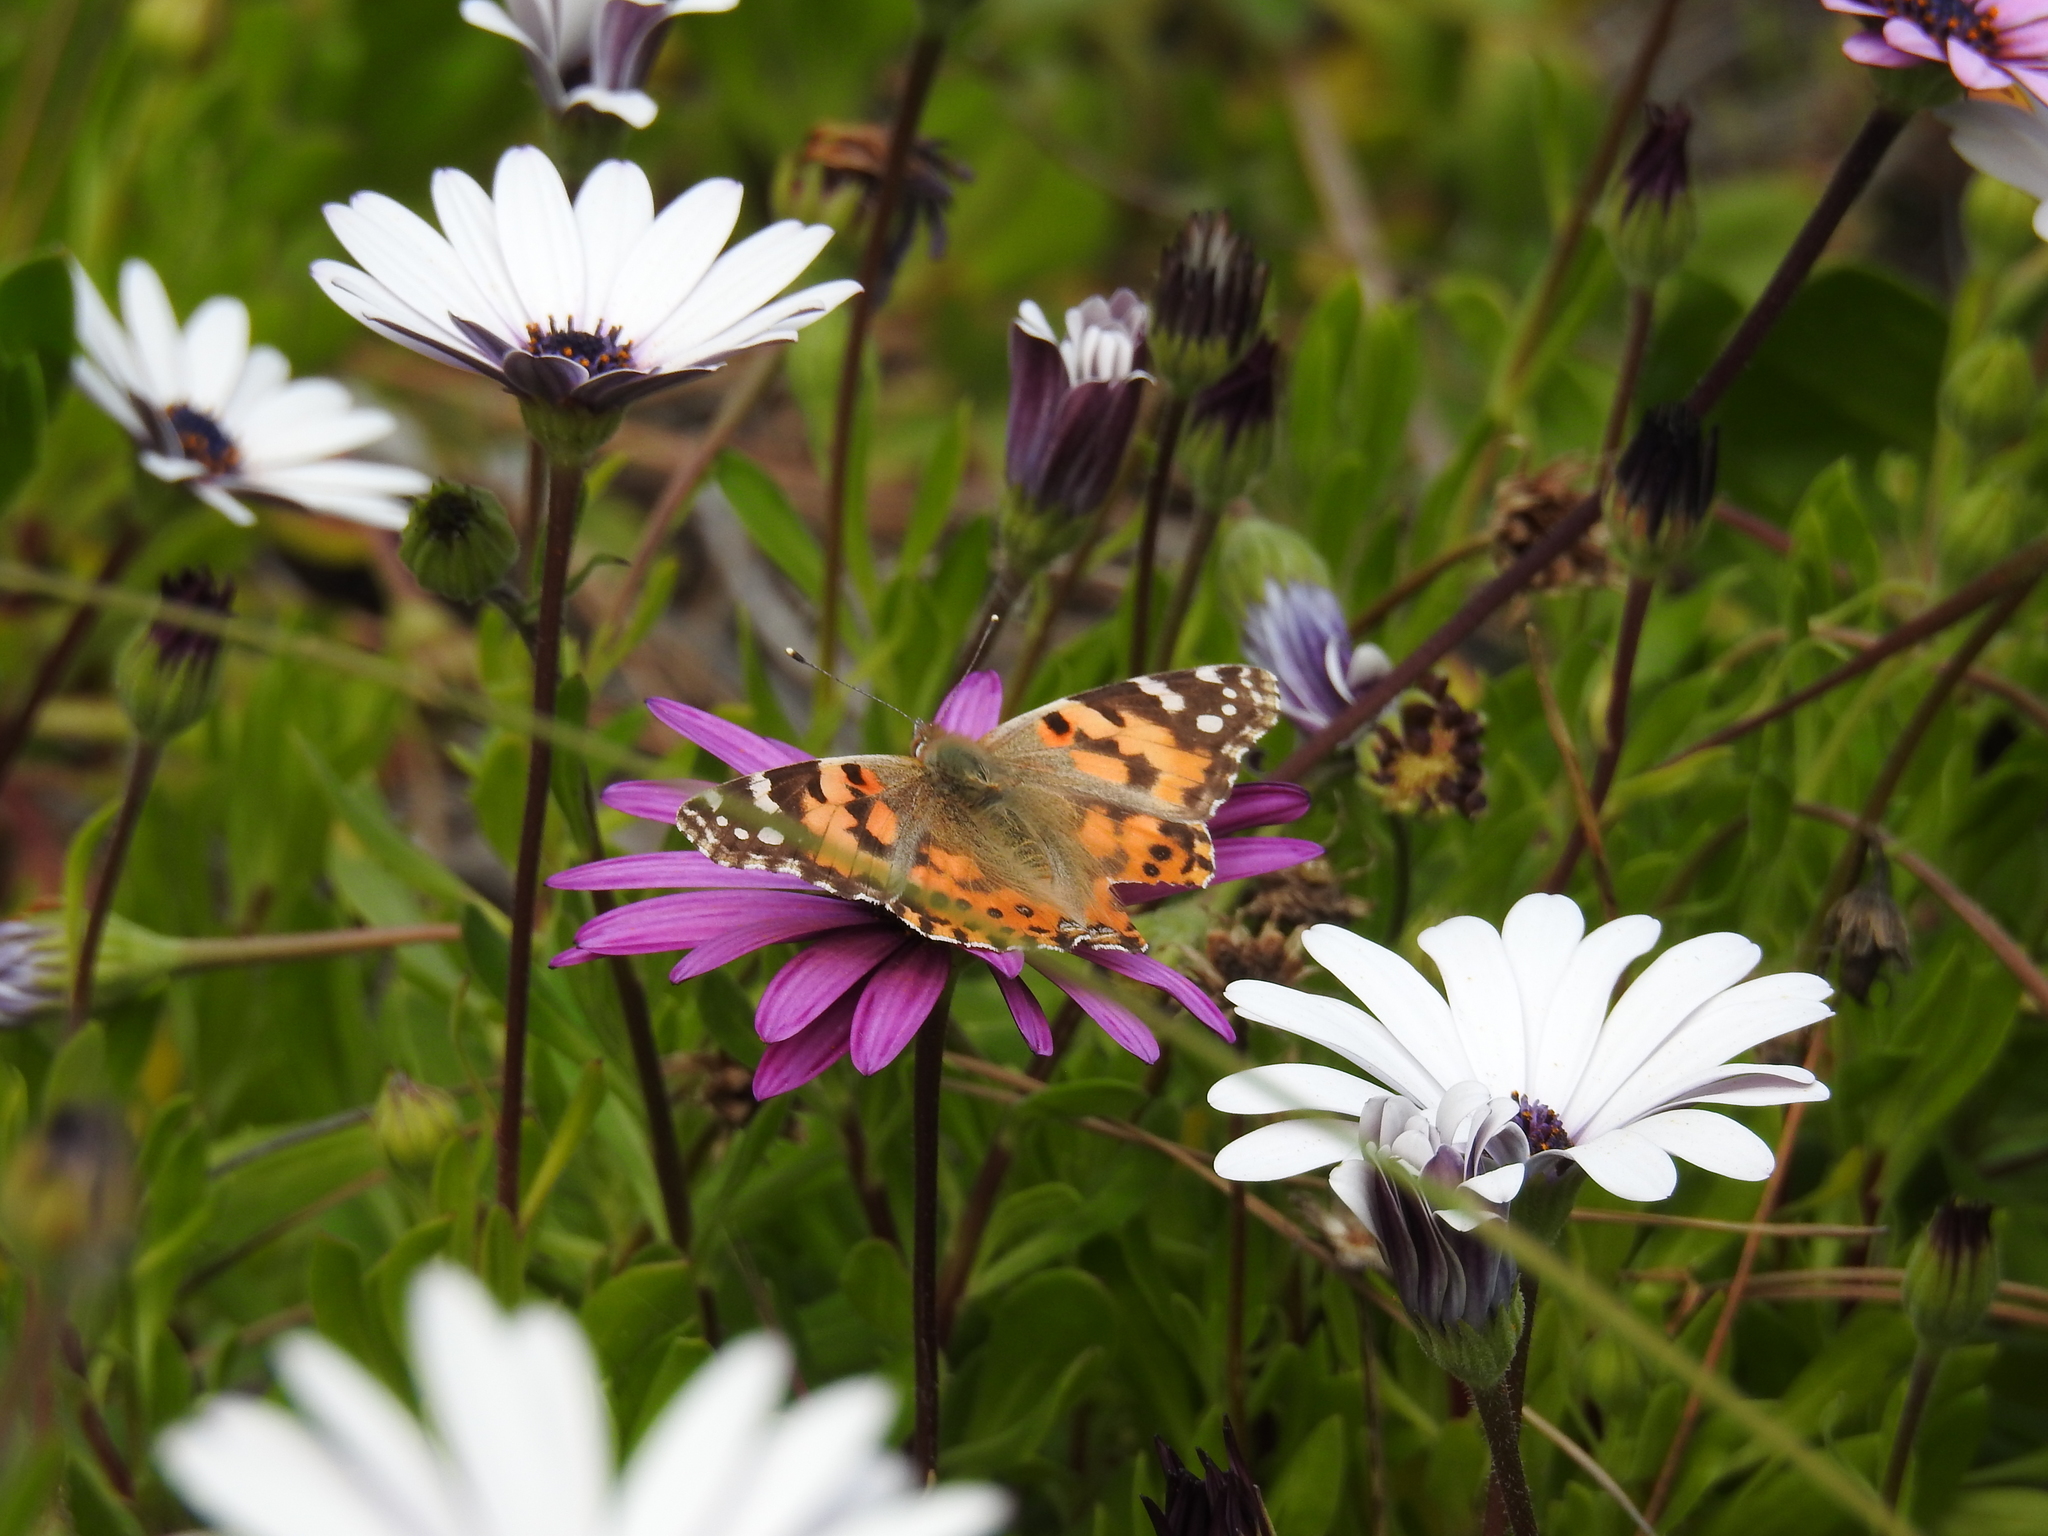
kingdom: Animalia
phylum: Arthropoda
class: Insecta
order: Lepidoptera
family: Nymphalidae
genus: Vanessa
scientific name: Vanessa cardui
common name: Painted lady
